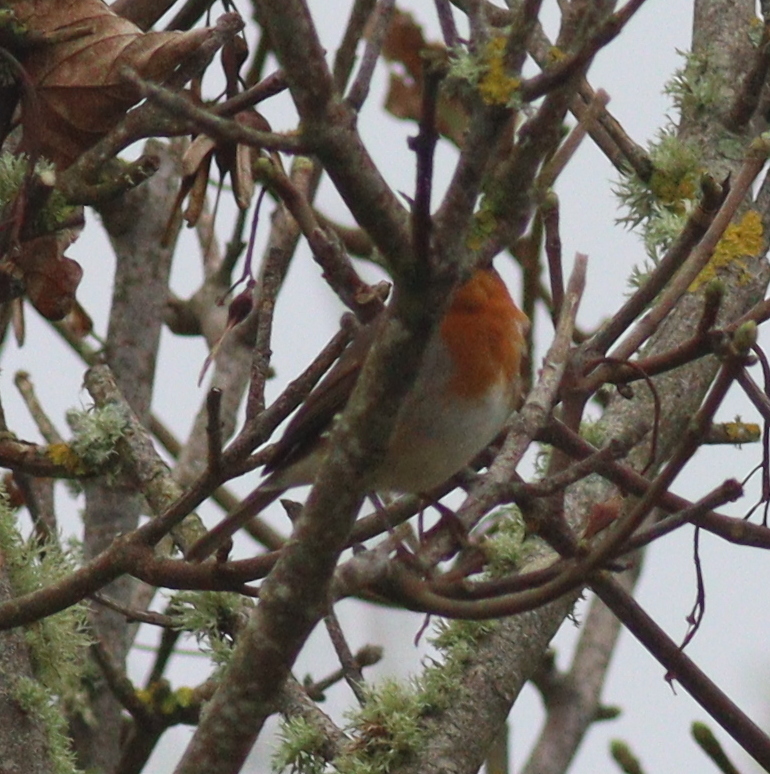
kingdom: Animalia
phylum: Chordata
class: Aves
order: Passeriformes
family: Muscicapidae
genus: Erithacus
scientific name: Erithacus rubecula
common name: European robin
